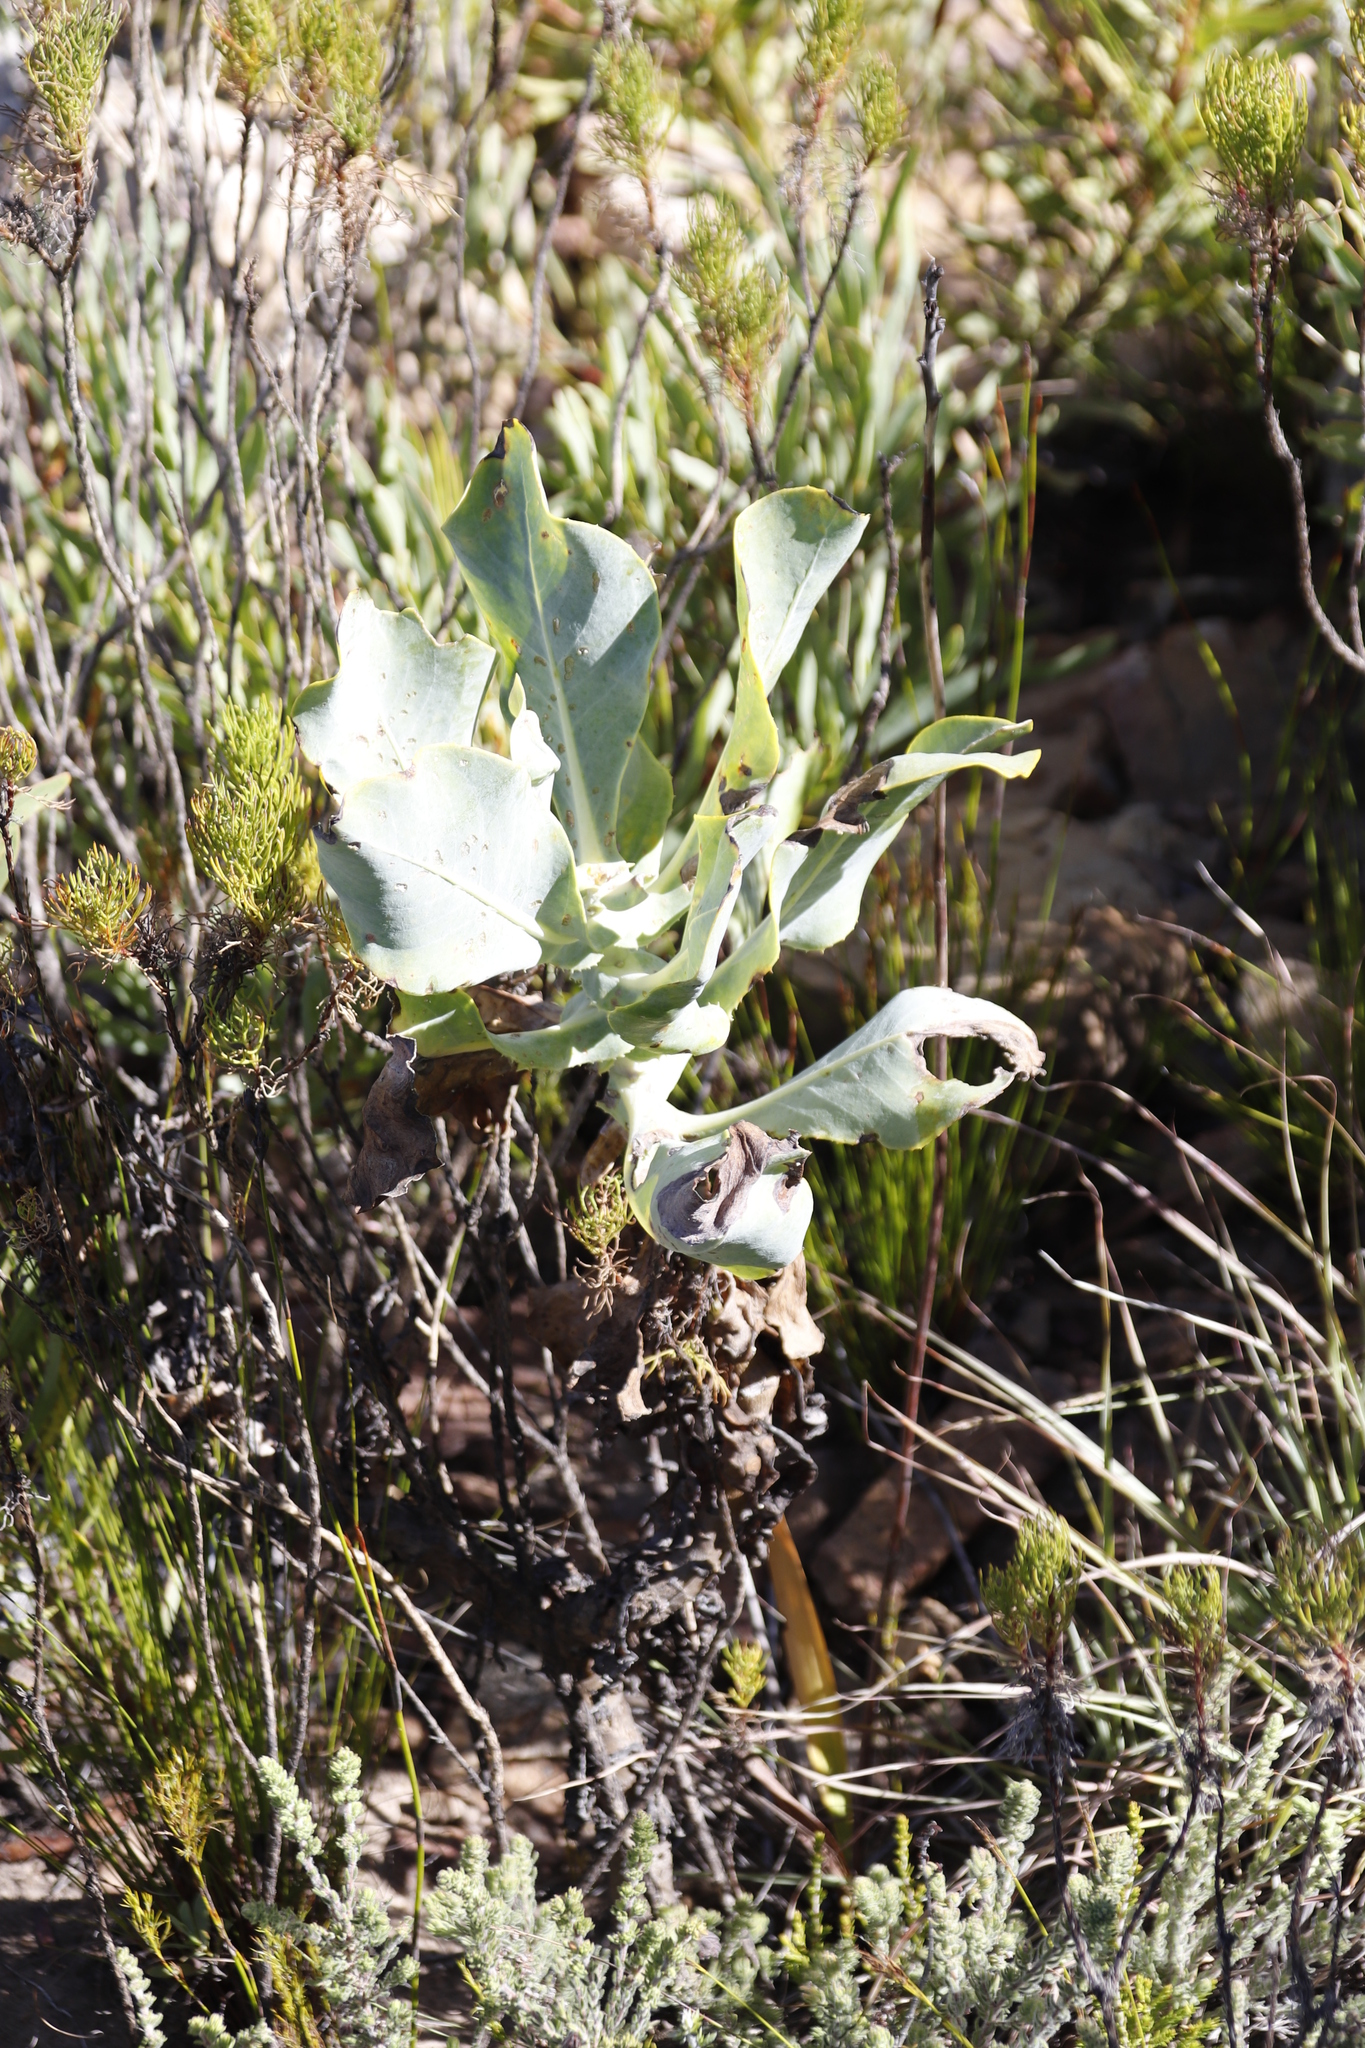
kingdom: Plantae
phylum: Tracheophyta
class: Magnoliopsida
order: Asterales
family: Asteraceae
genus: Othonna
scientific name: Othonna parviflora
